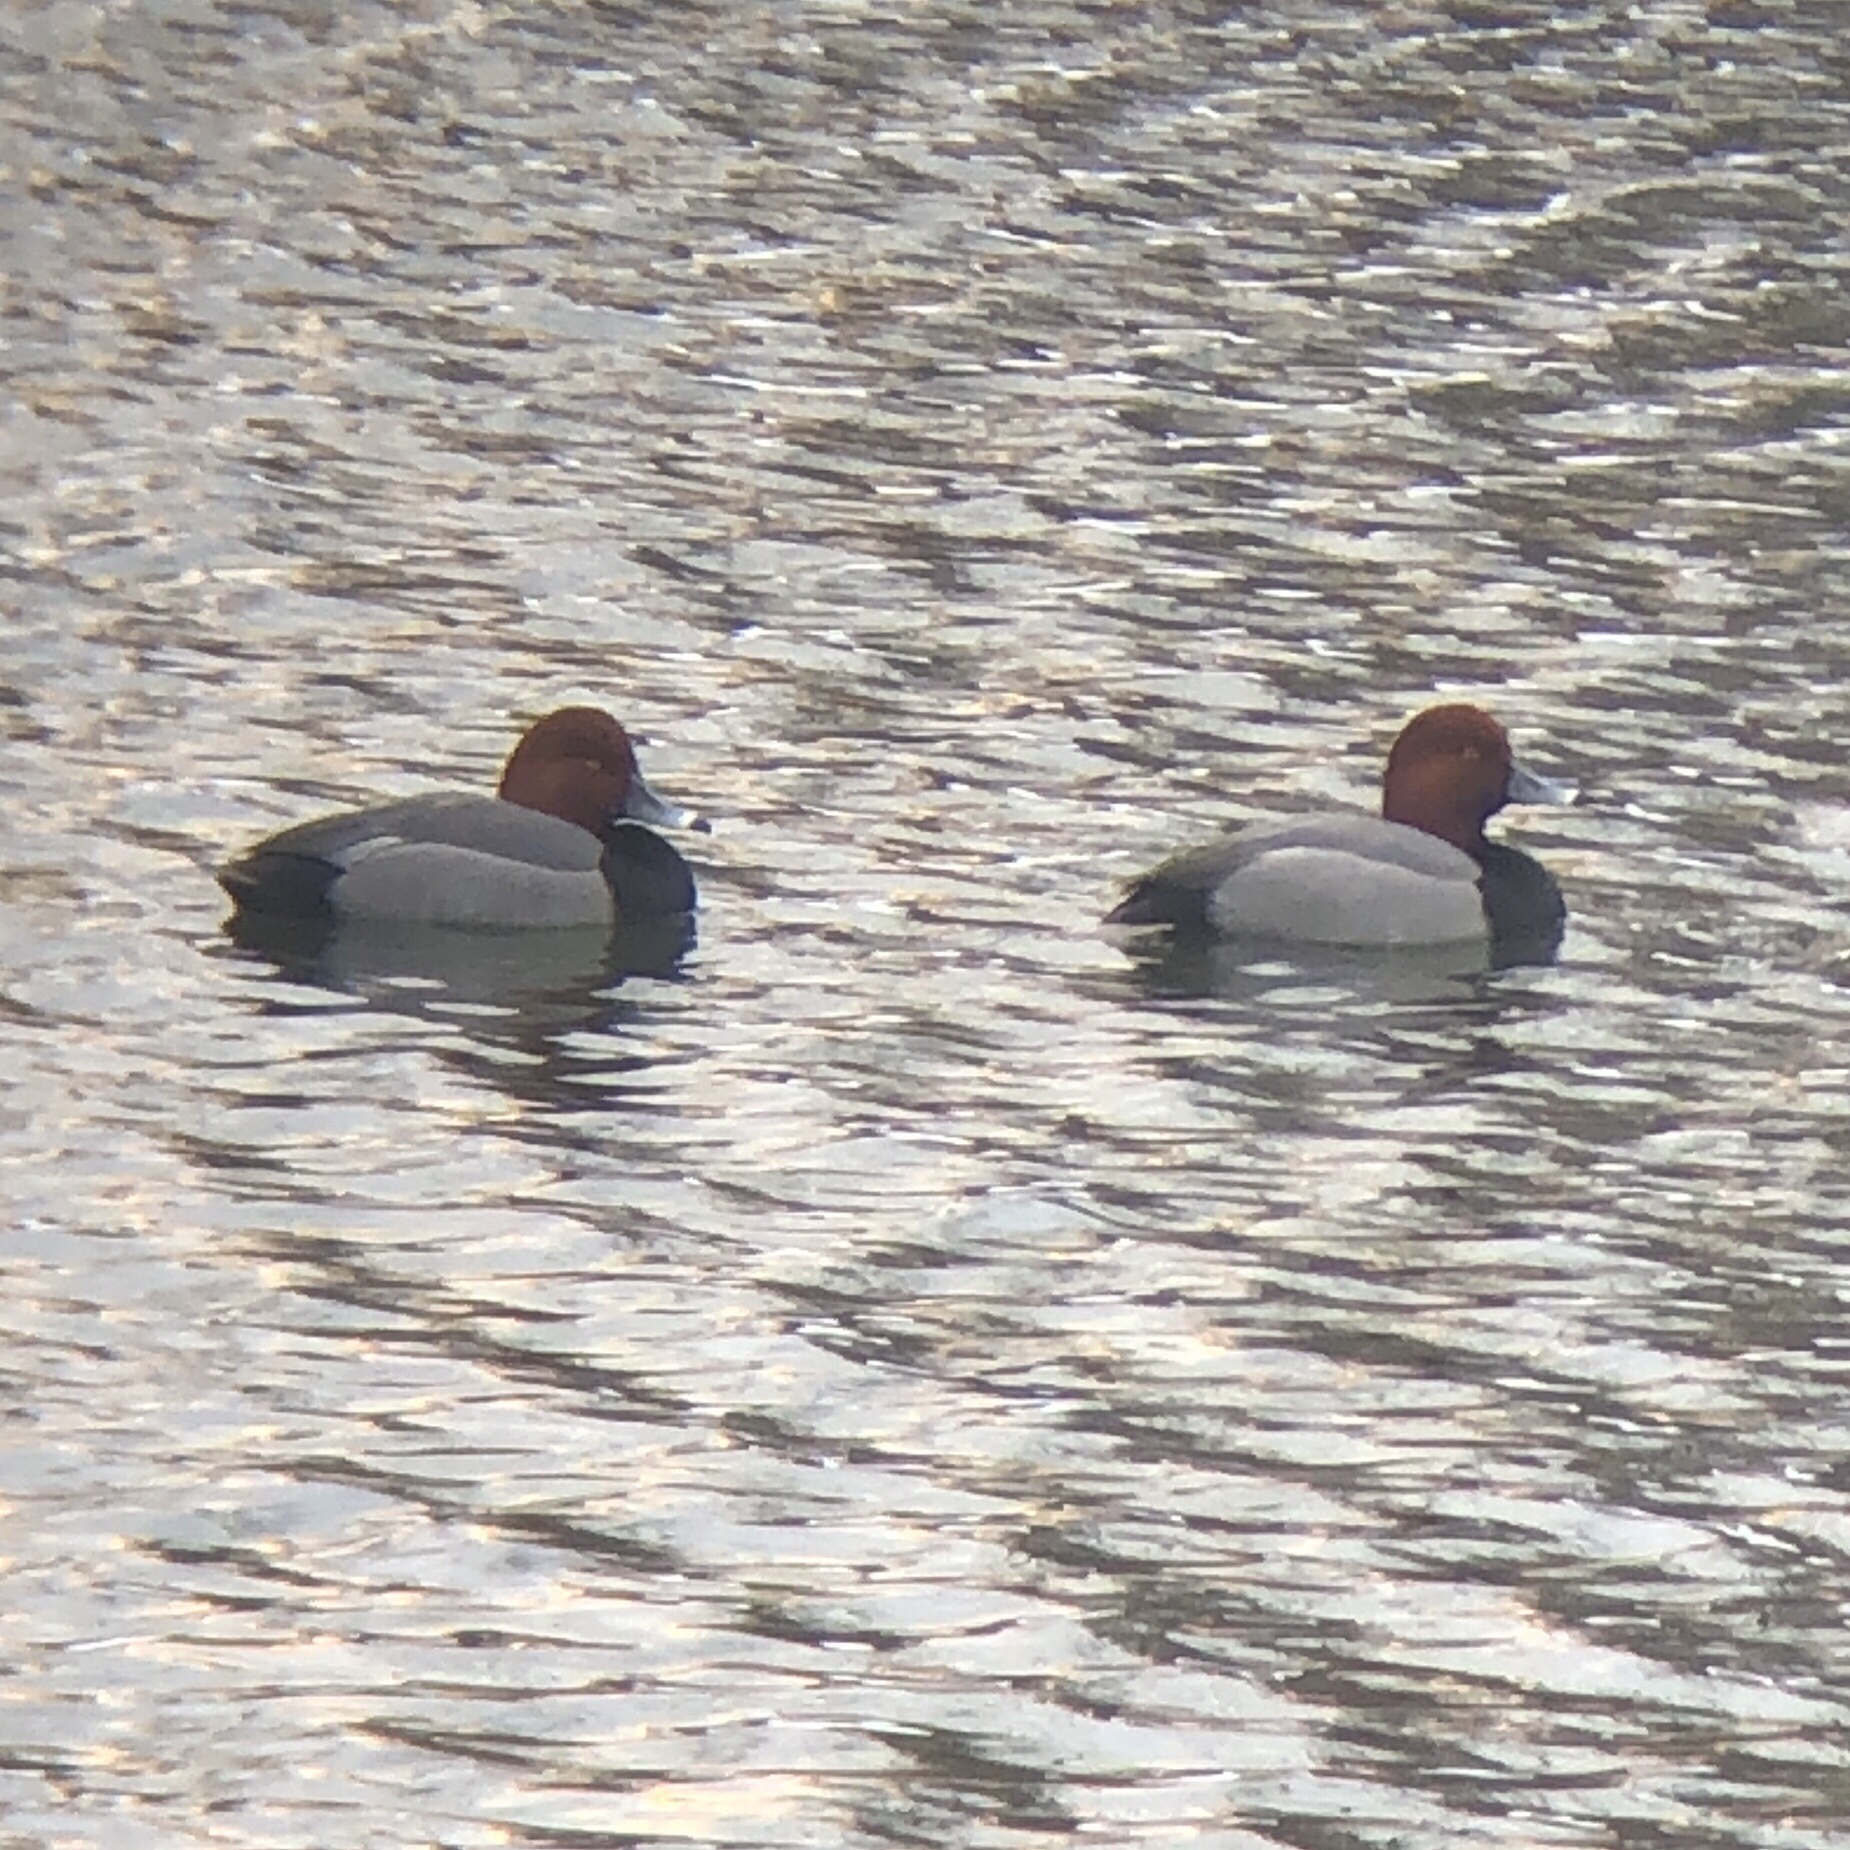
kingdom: Animalia
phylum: Chordata
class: Aves
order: Anseriformes
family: Anatidae
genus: Aythya
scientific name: Aythya americana
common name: Redhead
